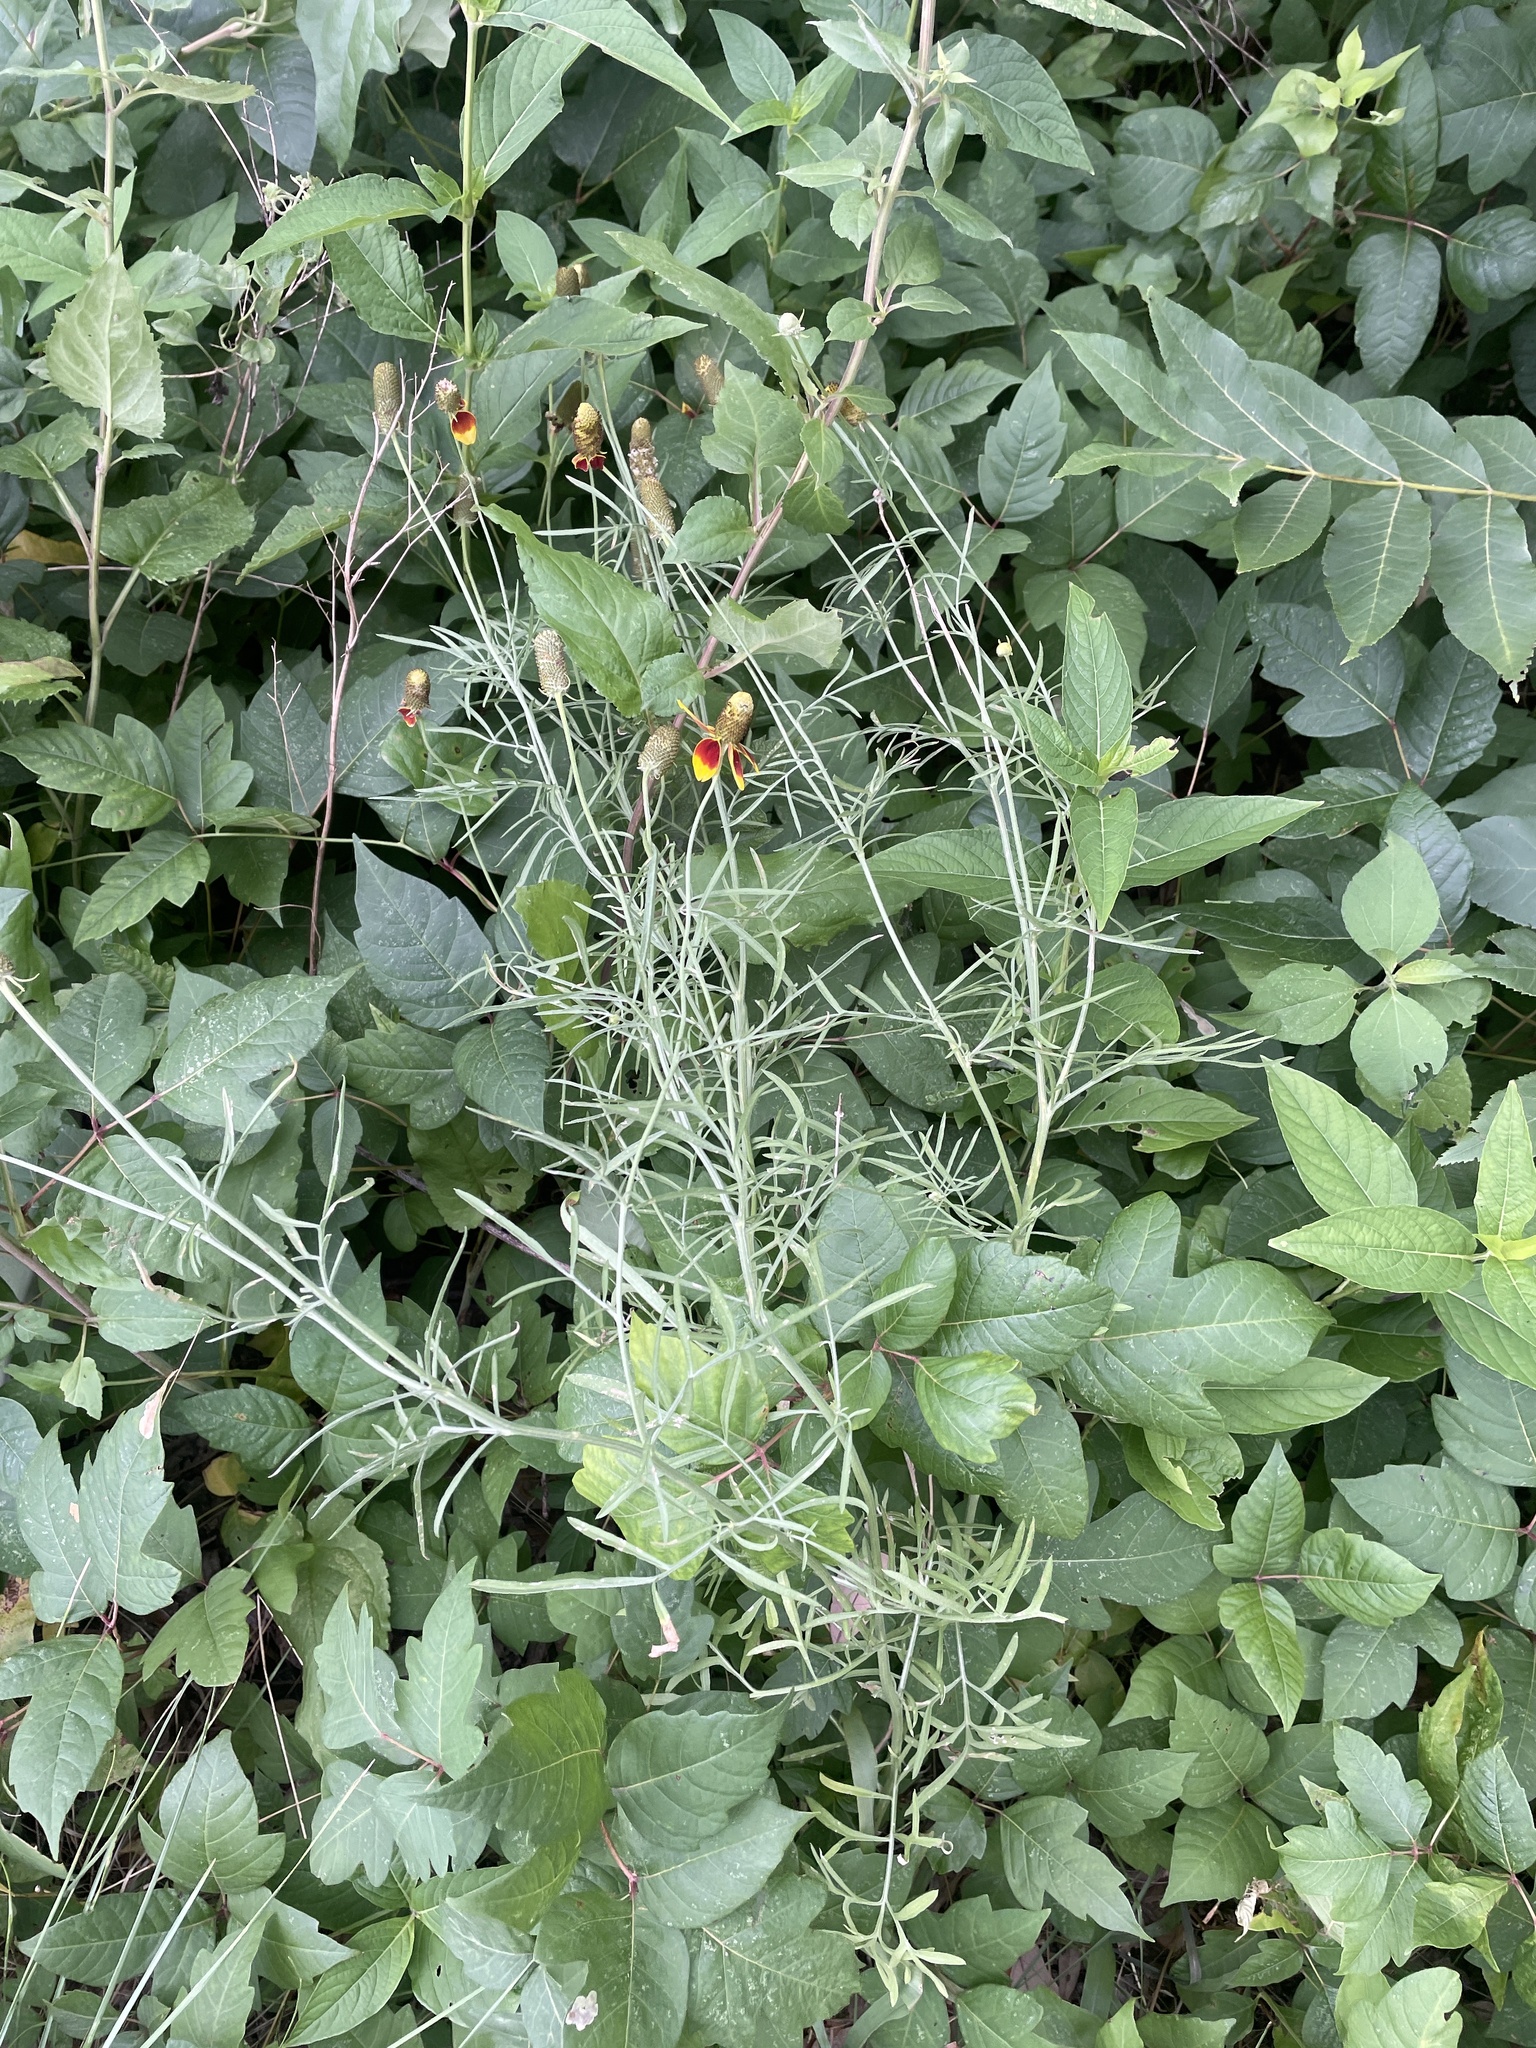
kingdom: Plantae
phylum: Tracheophyta
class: Magnoliopsida
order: Asterales
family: Asteraceae
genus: Ratibida
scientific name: Ratibida columnifera
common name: Prairie coneflower
